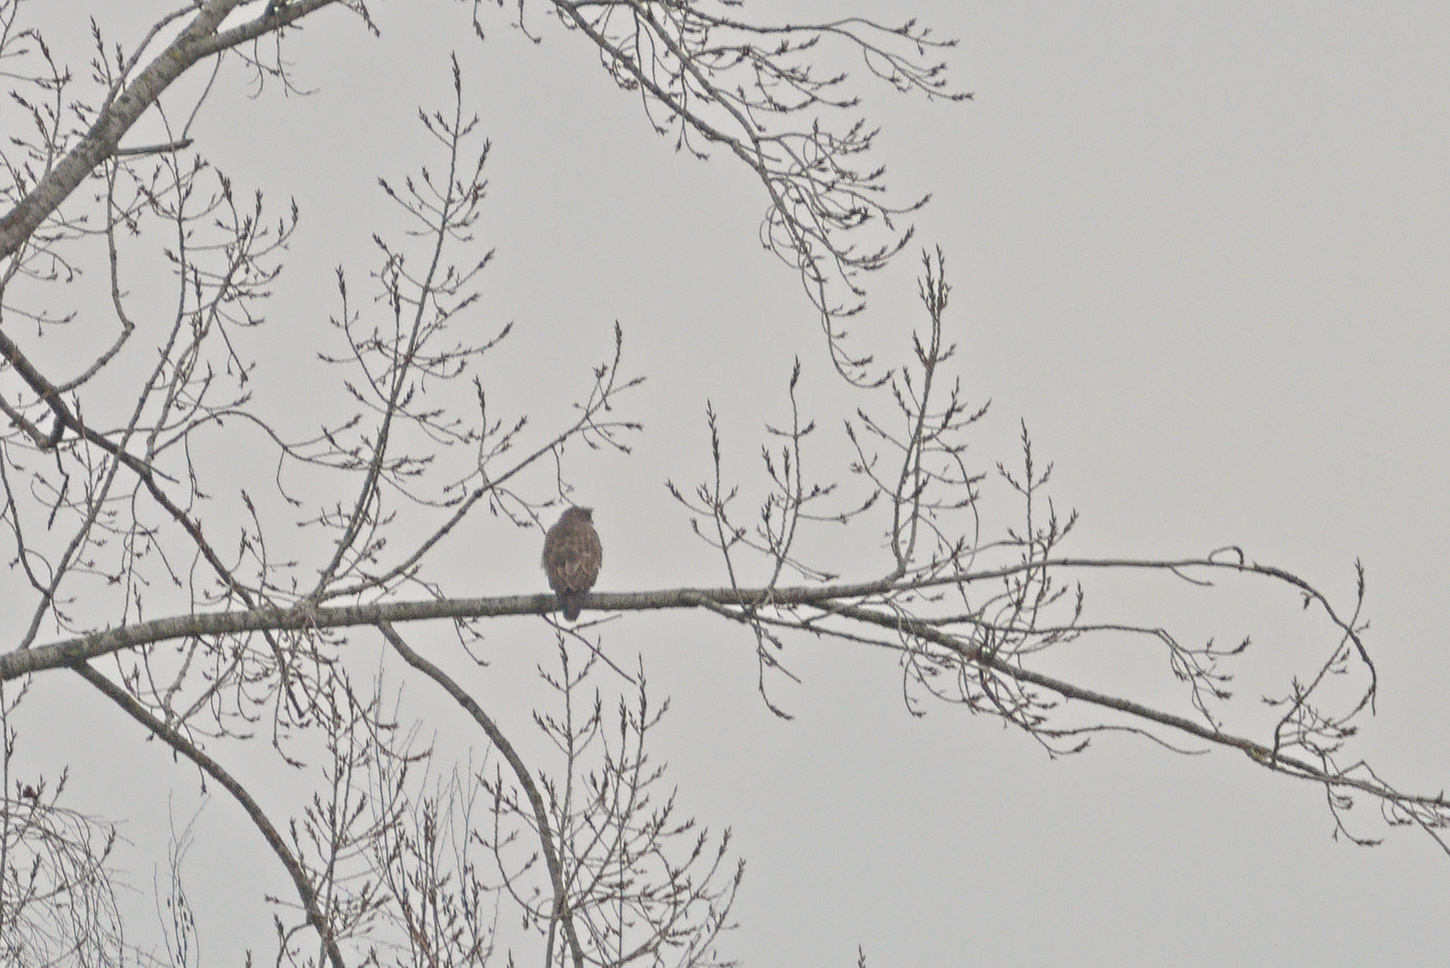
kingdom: Animalia
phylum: Chordata
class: Aves
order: Accipitriformes
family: Accipitridae
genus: Buteo
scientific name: Buteo buteo
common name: Common buzzard
